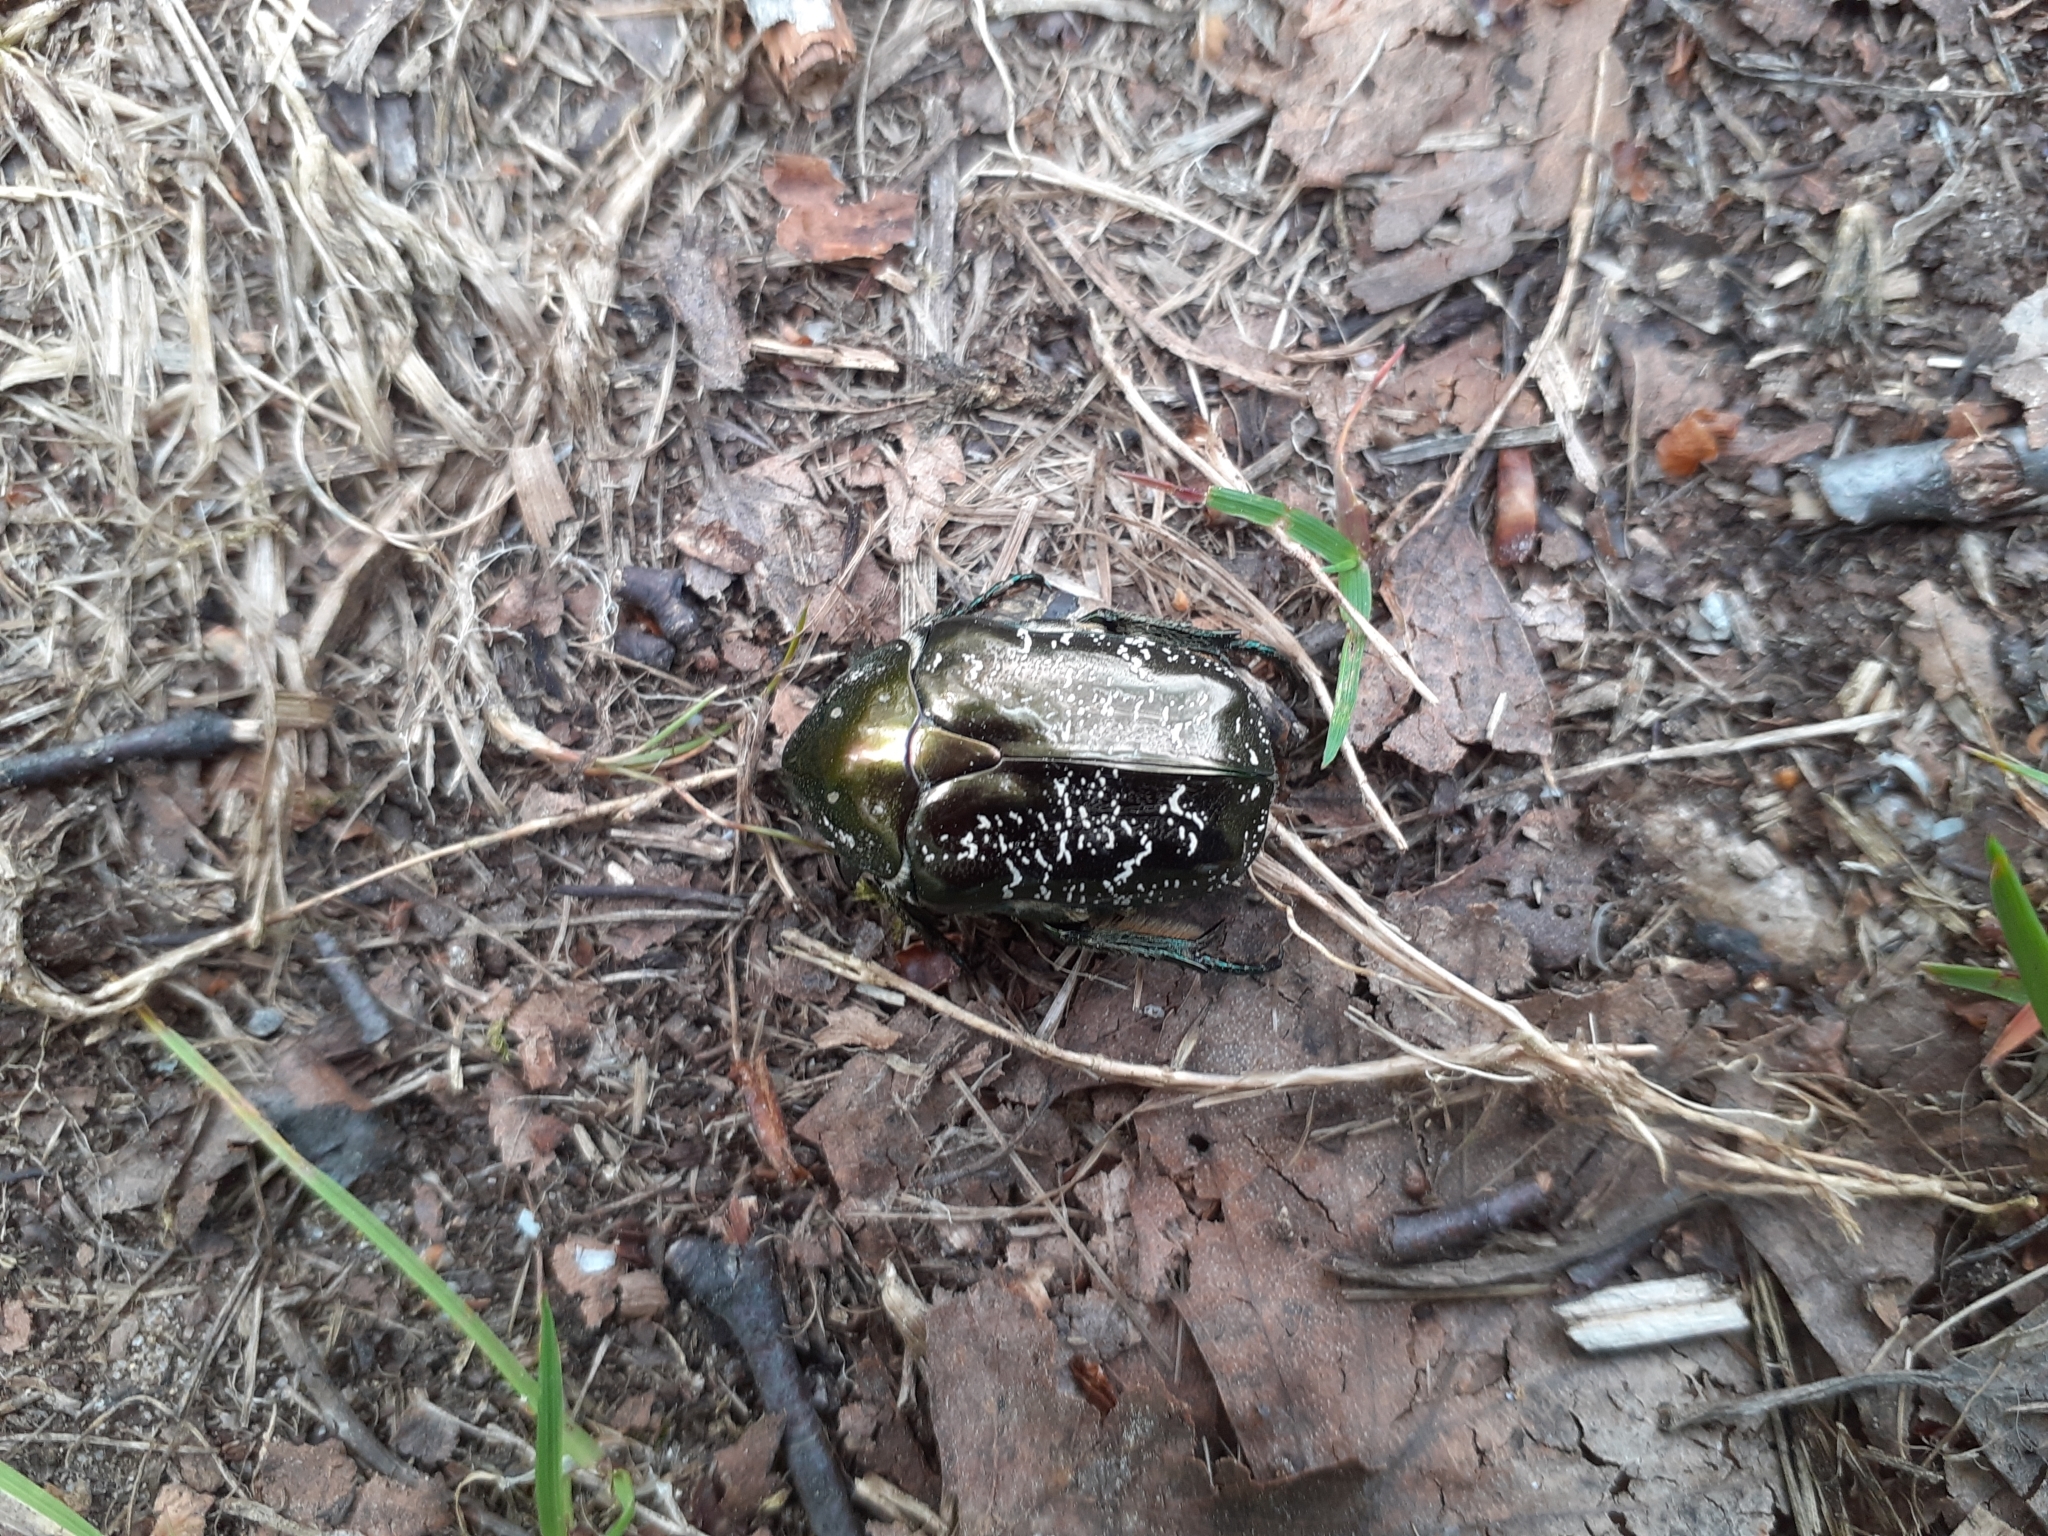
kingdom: Animalia
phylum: Arthropoda
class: Insecta
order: Coleoptera
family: Scarabaeidae
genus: Protaetia
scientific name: Protaetia marmorata
